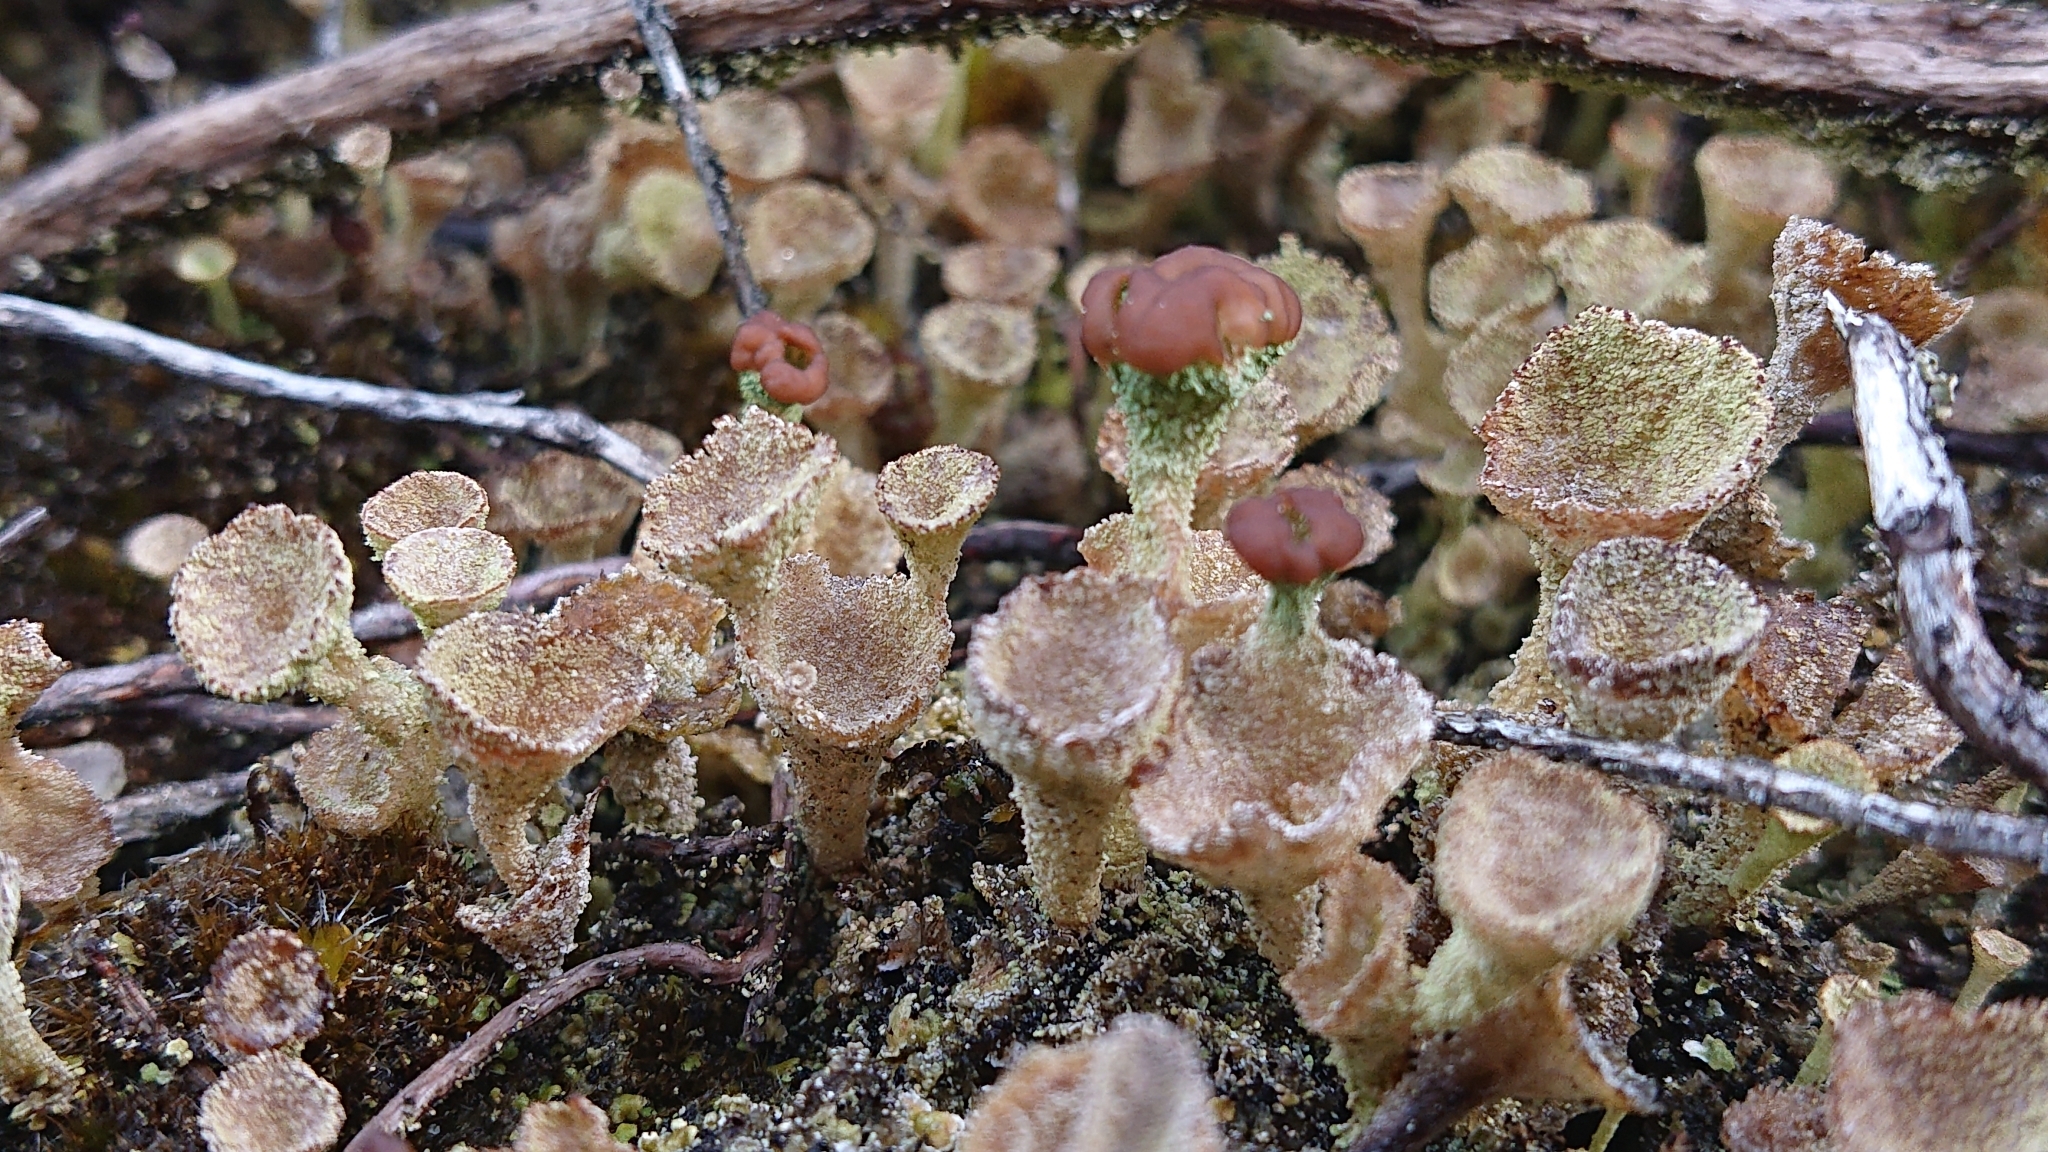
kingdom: Fungi
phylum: Ascomycota
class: Lecanoromycetes
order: Lecanorales
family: Cladoniaceae
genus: Cladonia
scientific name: Cladonia
